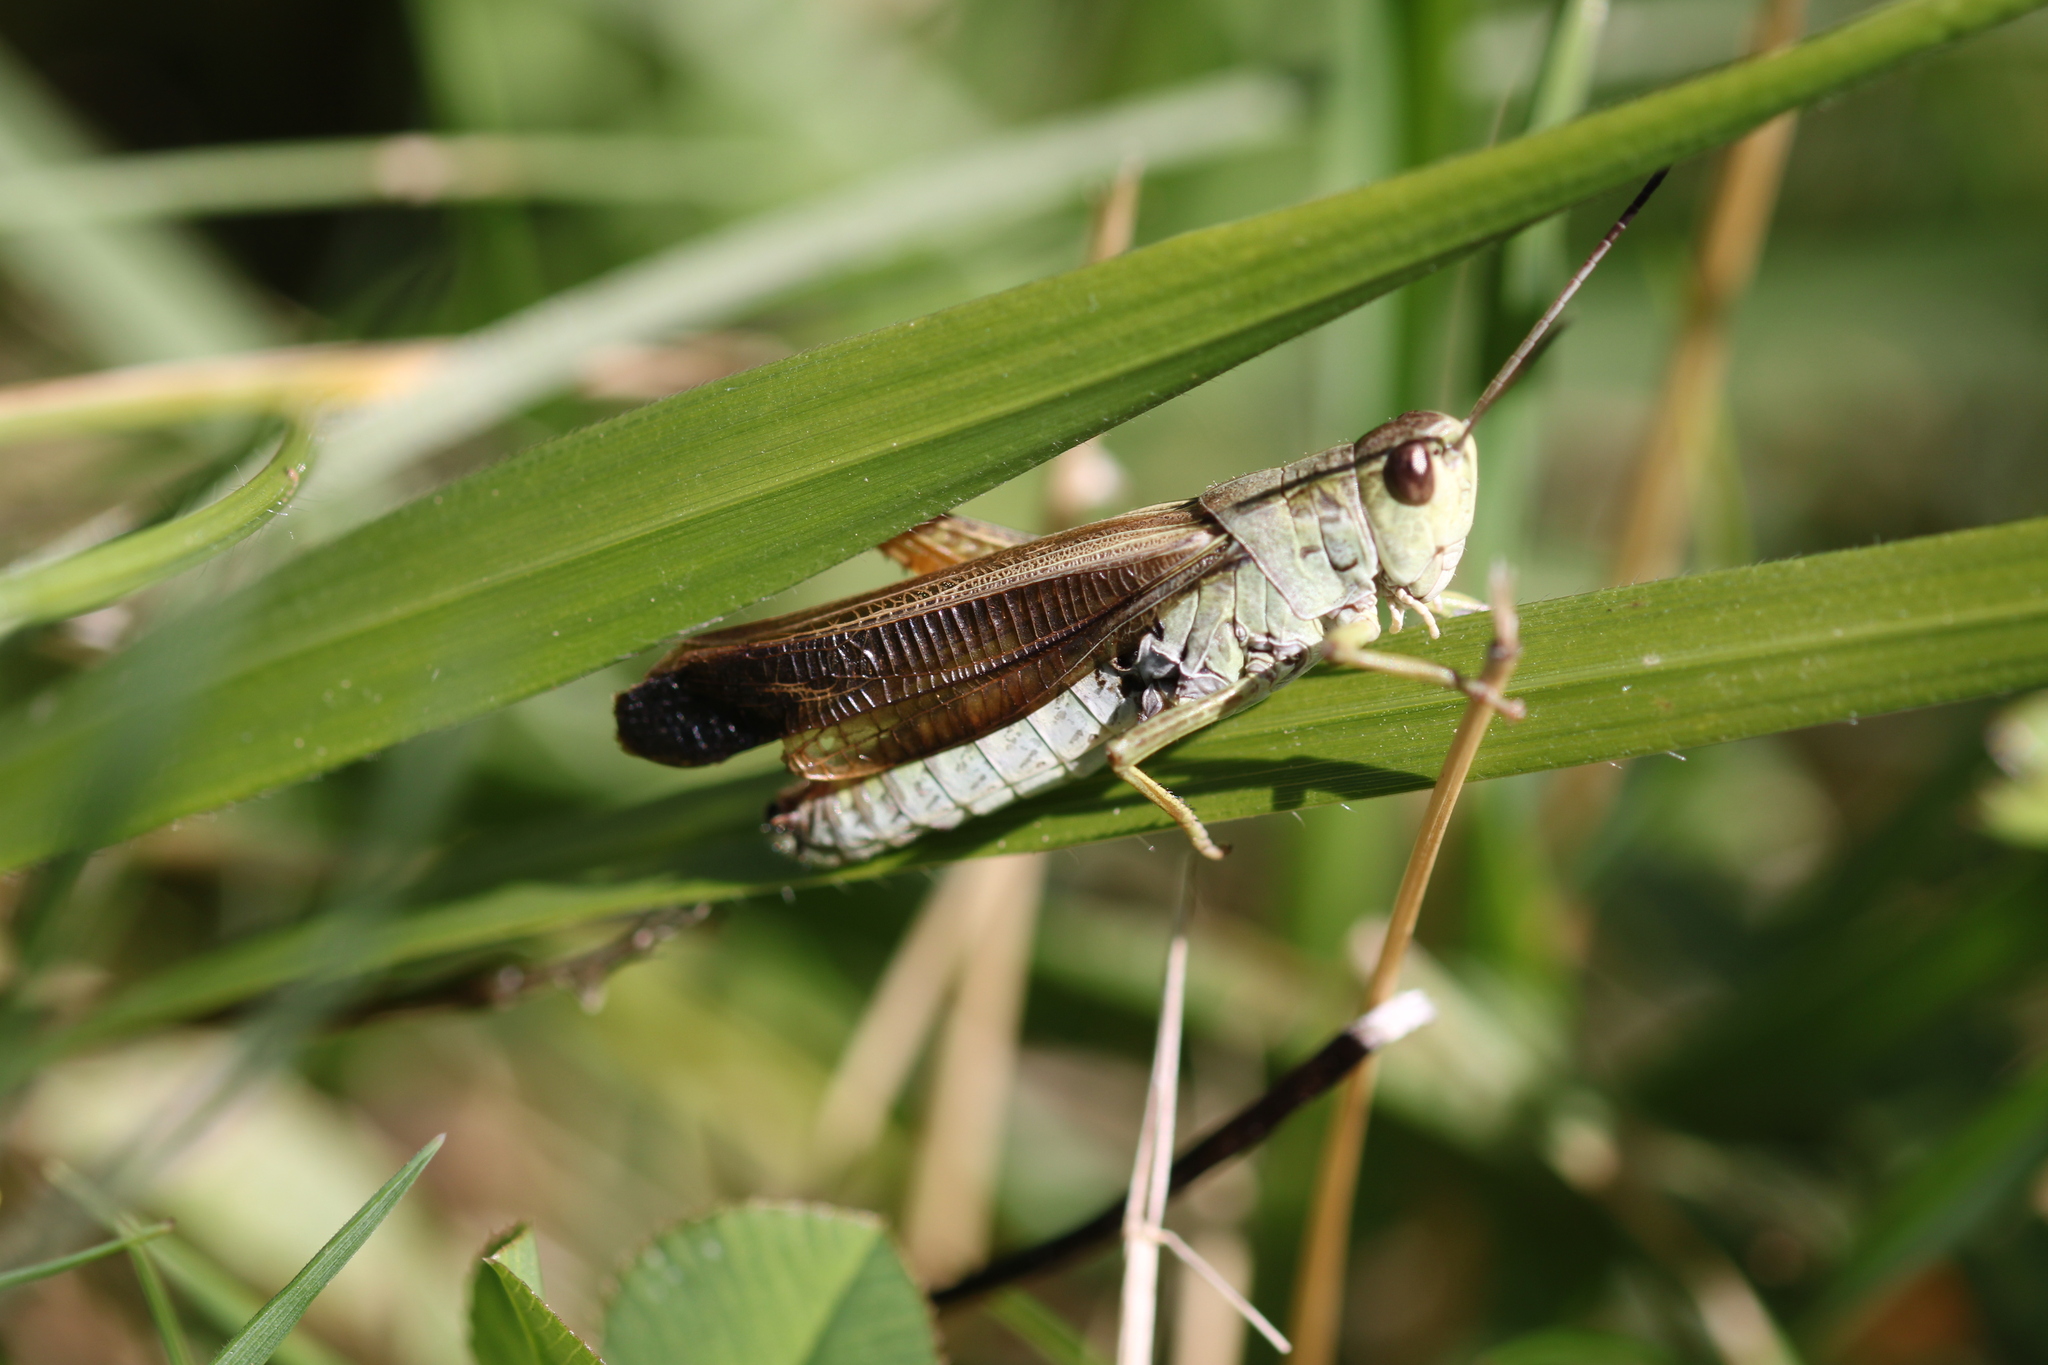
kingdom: Animalia
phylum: Arthropoda
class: Insecta
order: Orthoptera
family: Acrididae
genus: Stauroderus
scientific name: Stauroderus scalaris
